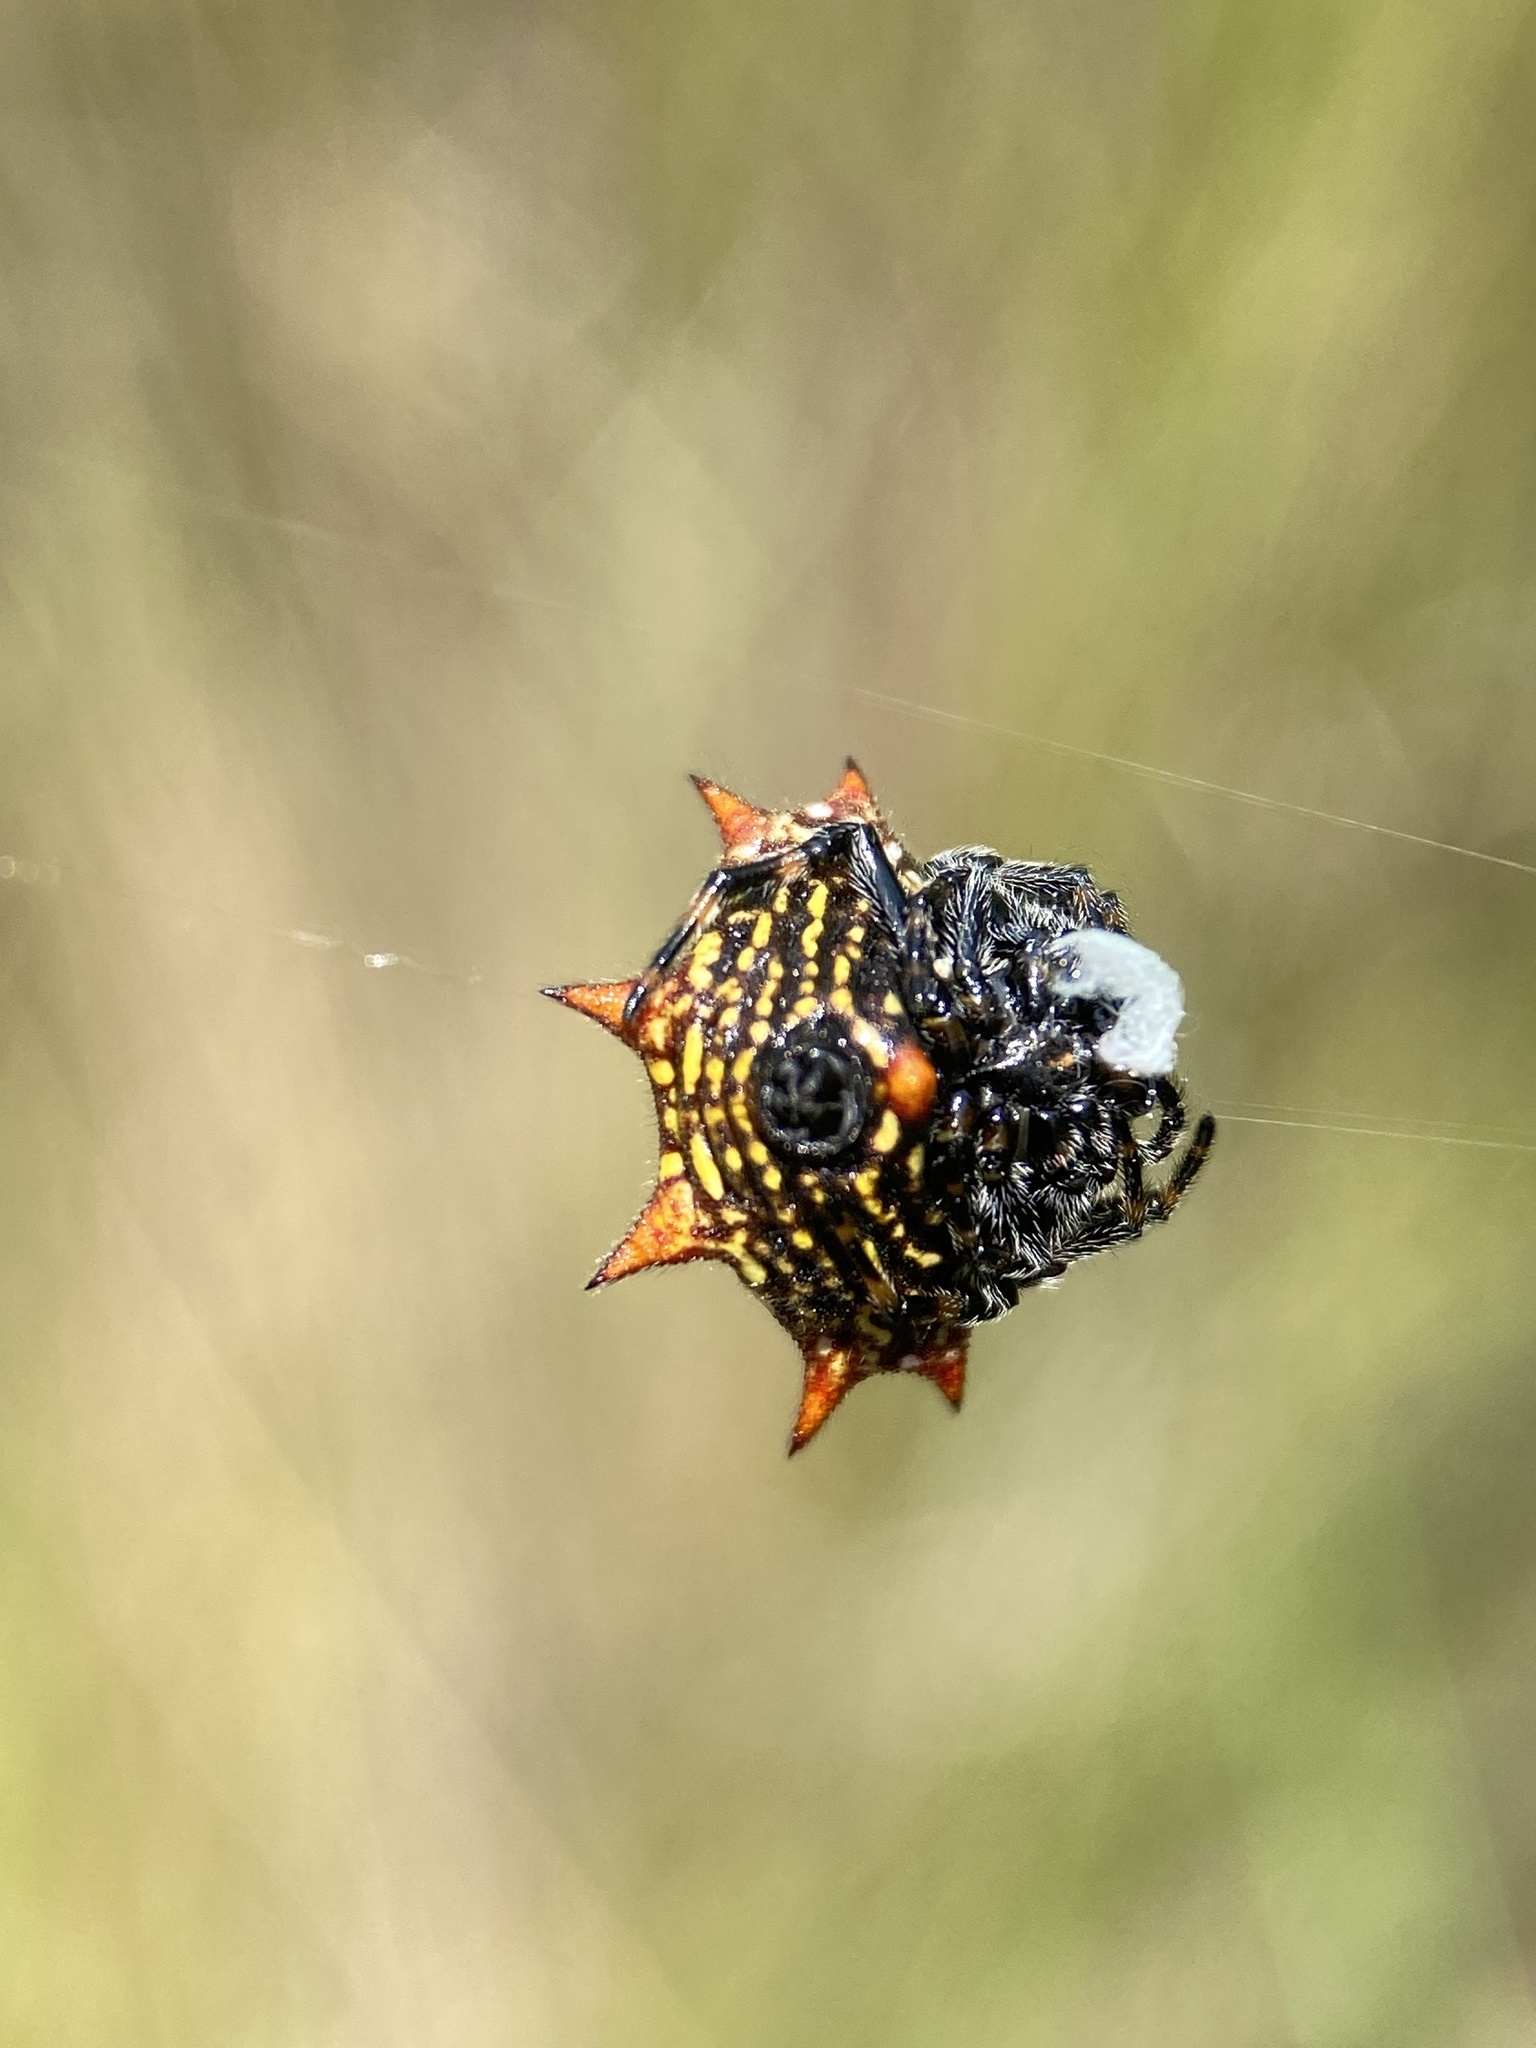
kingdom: Animalia
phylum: Arthropoda
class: Arachnida
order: Araneae
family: Araneidae
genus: Gasteracantha
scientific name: Gasteracantha cancriformis
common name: Orb weavers
